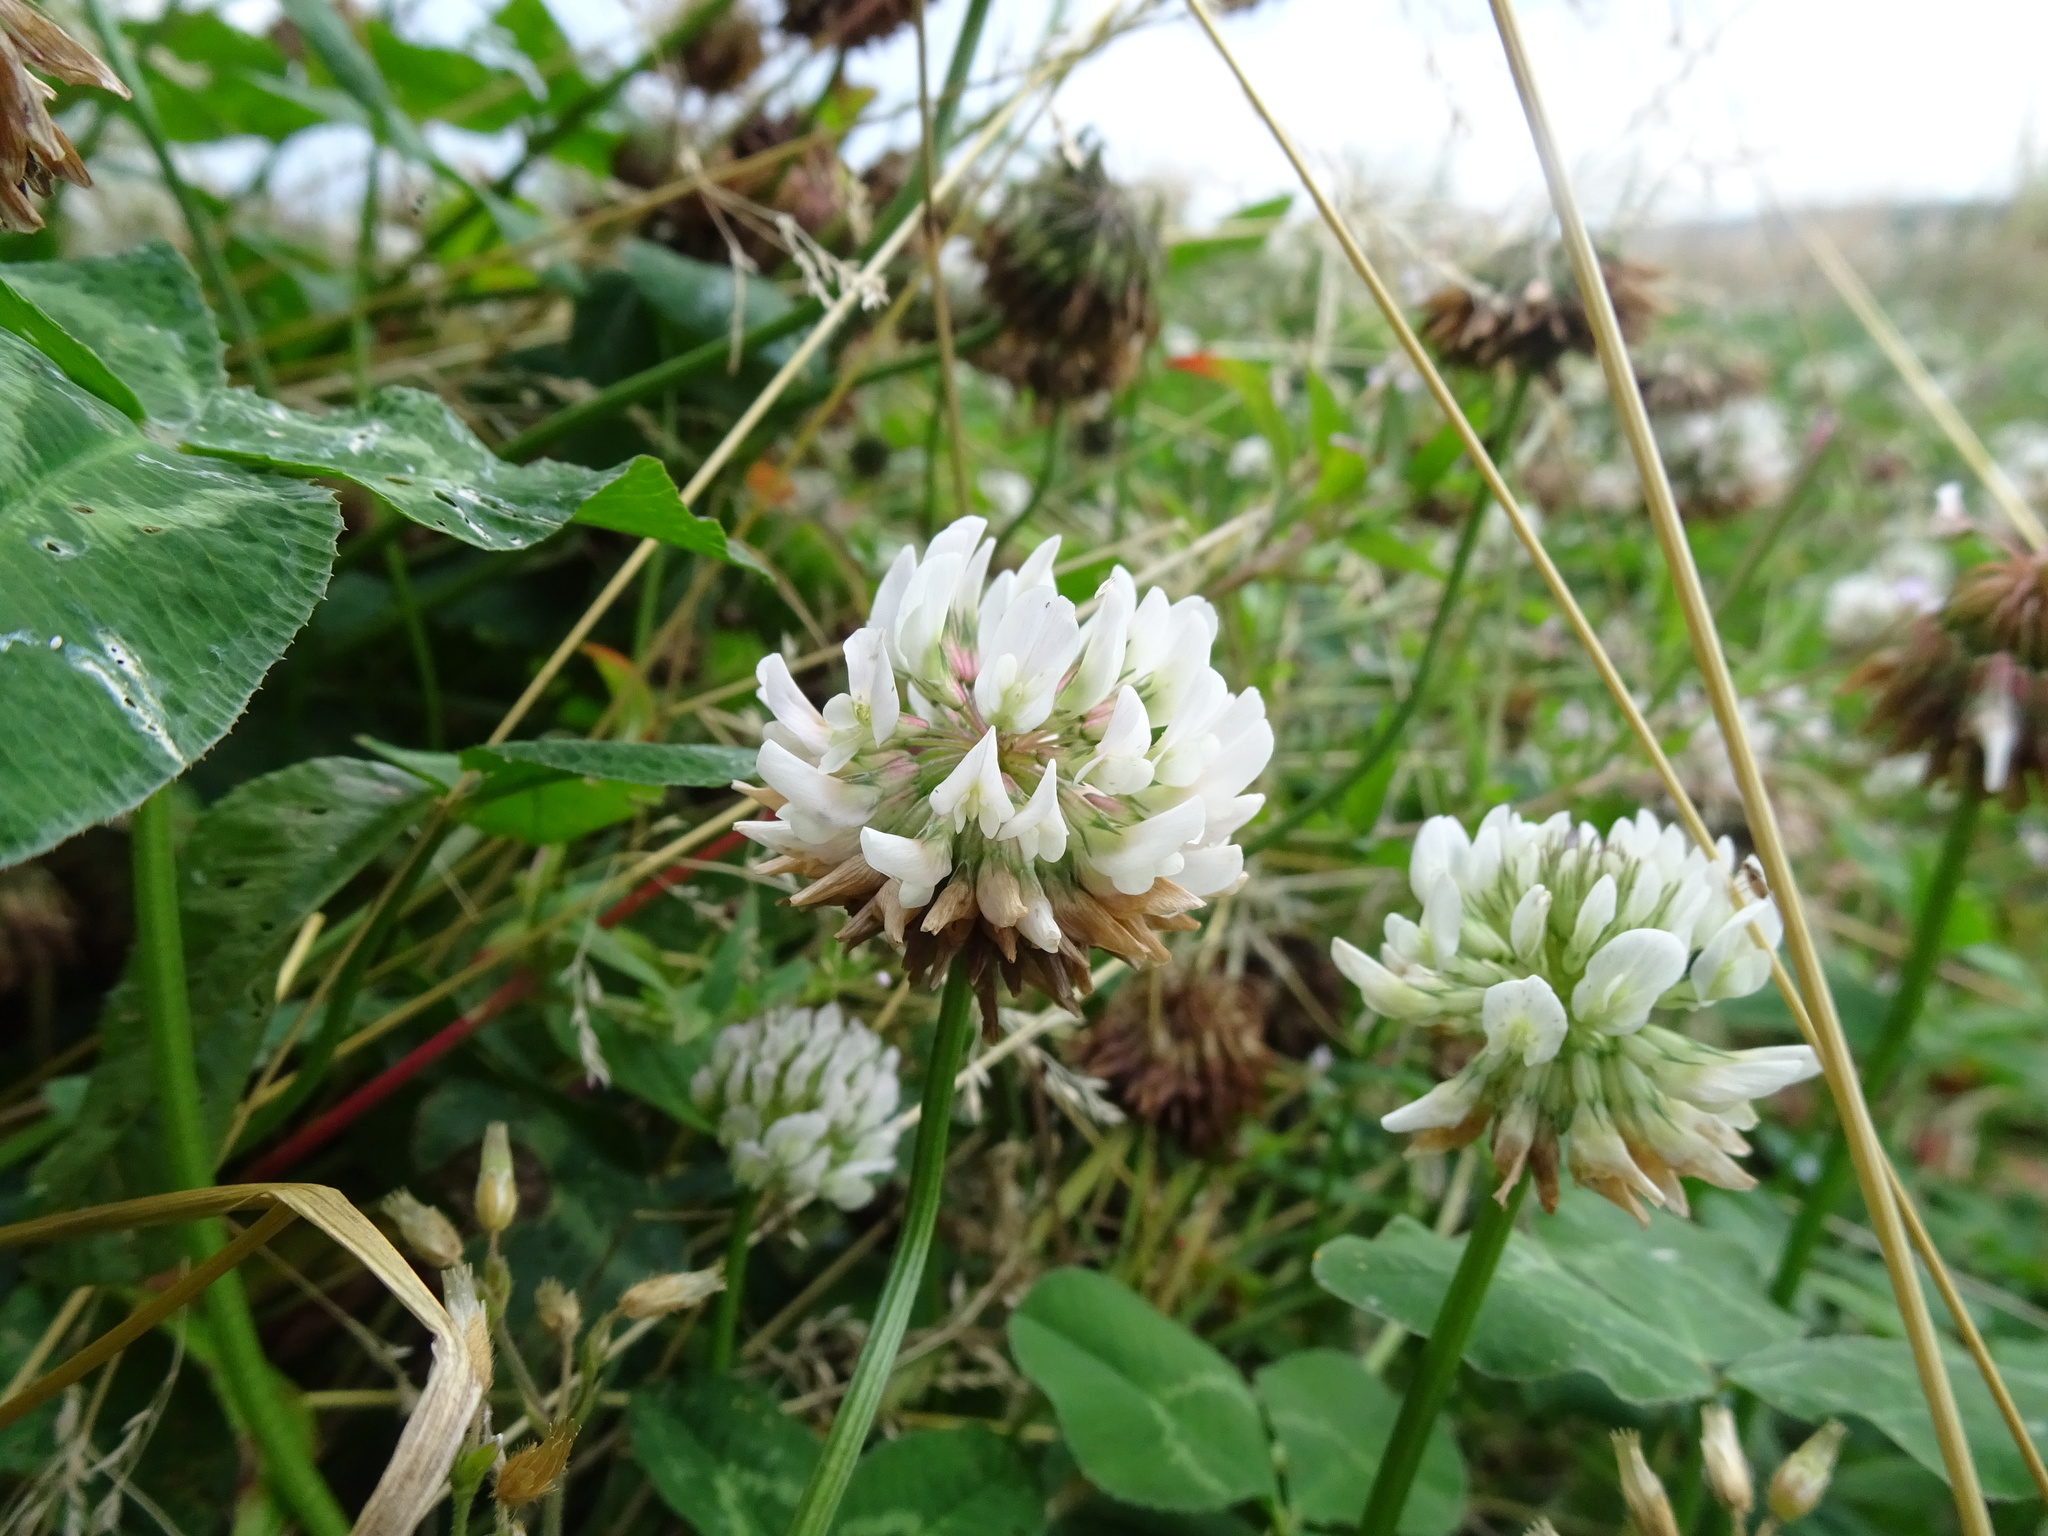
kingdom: Plantae
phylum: Tracheophyta
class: Magnoliopsida
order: Fabales
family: Fabaceae
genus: Trifolium
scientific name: Trifolium repens
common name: White clover
